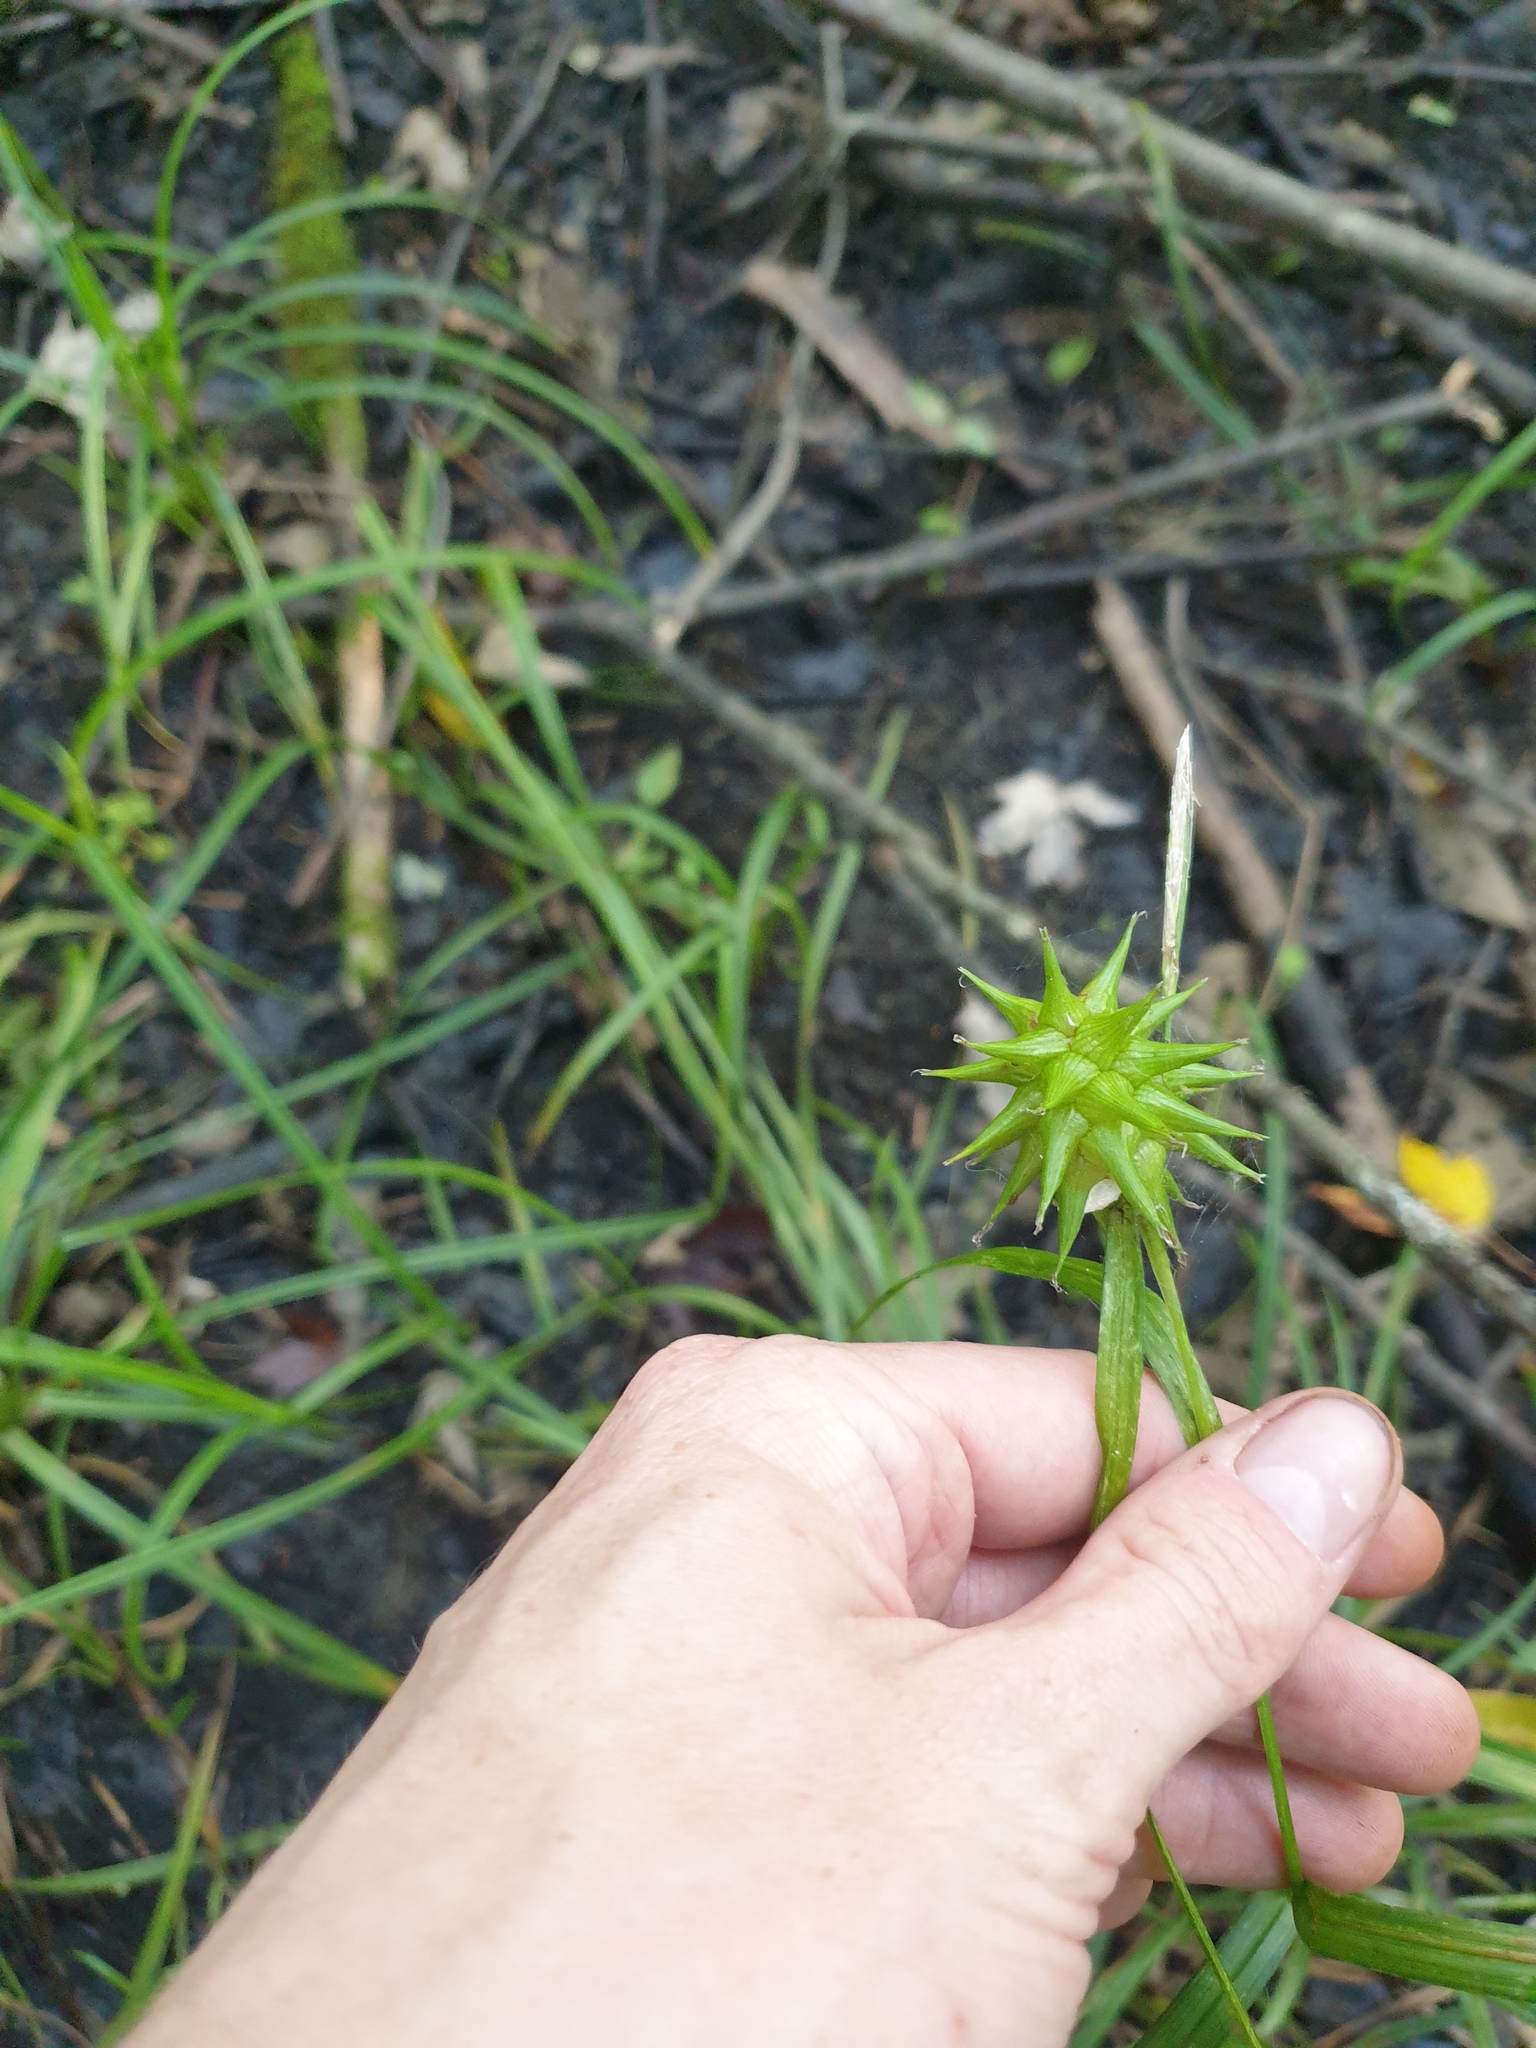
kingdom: Plantae
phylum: Tracheophyta
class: Liliopsida
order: Poales
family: Cyperaceae
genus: Carex
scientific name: Carex grayi
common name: Asa gray's sedge
